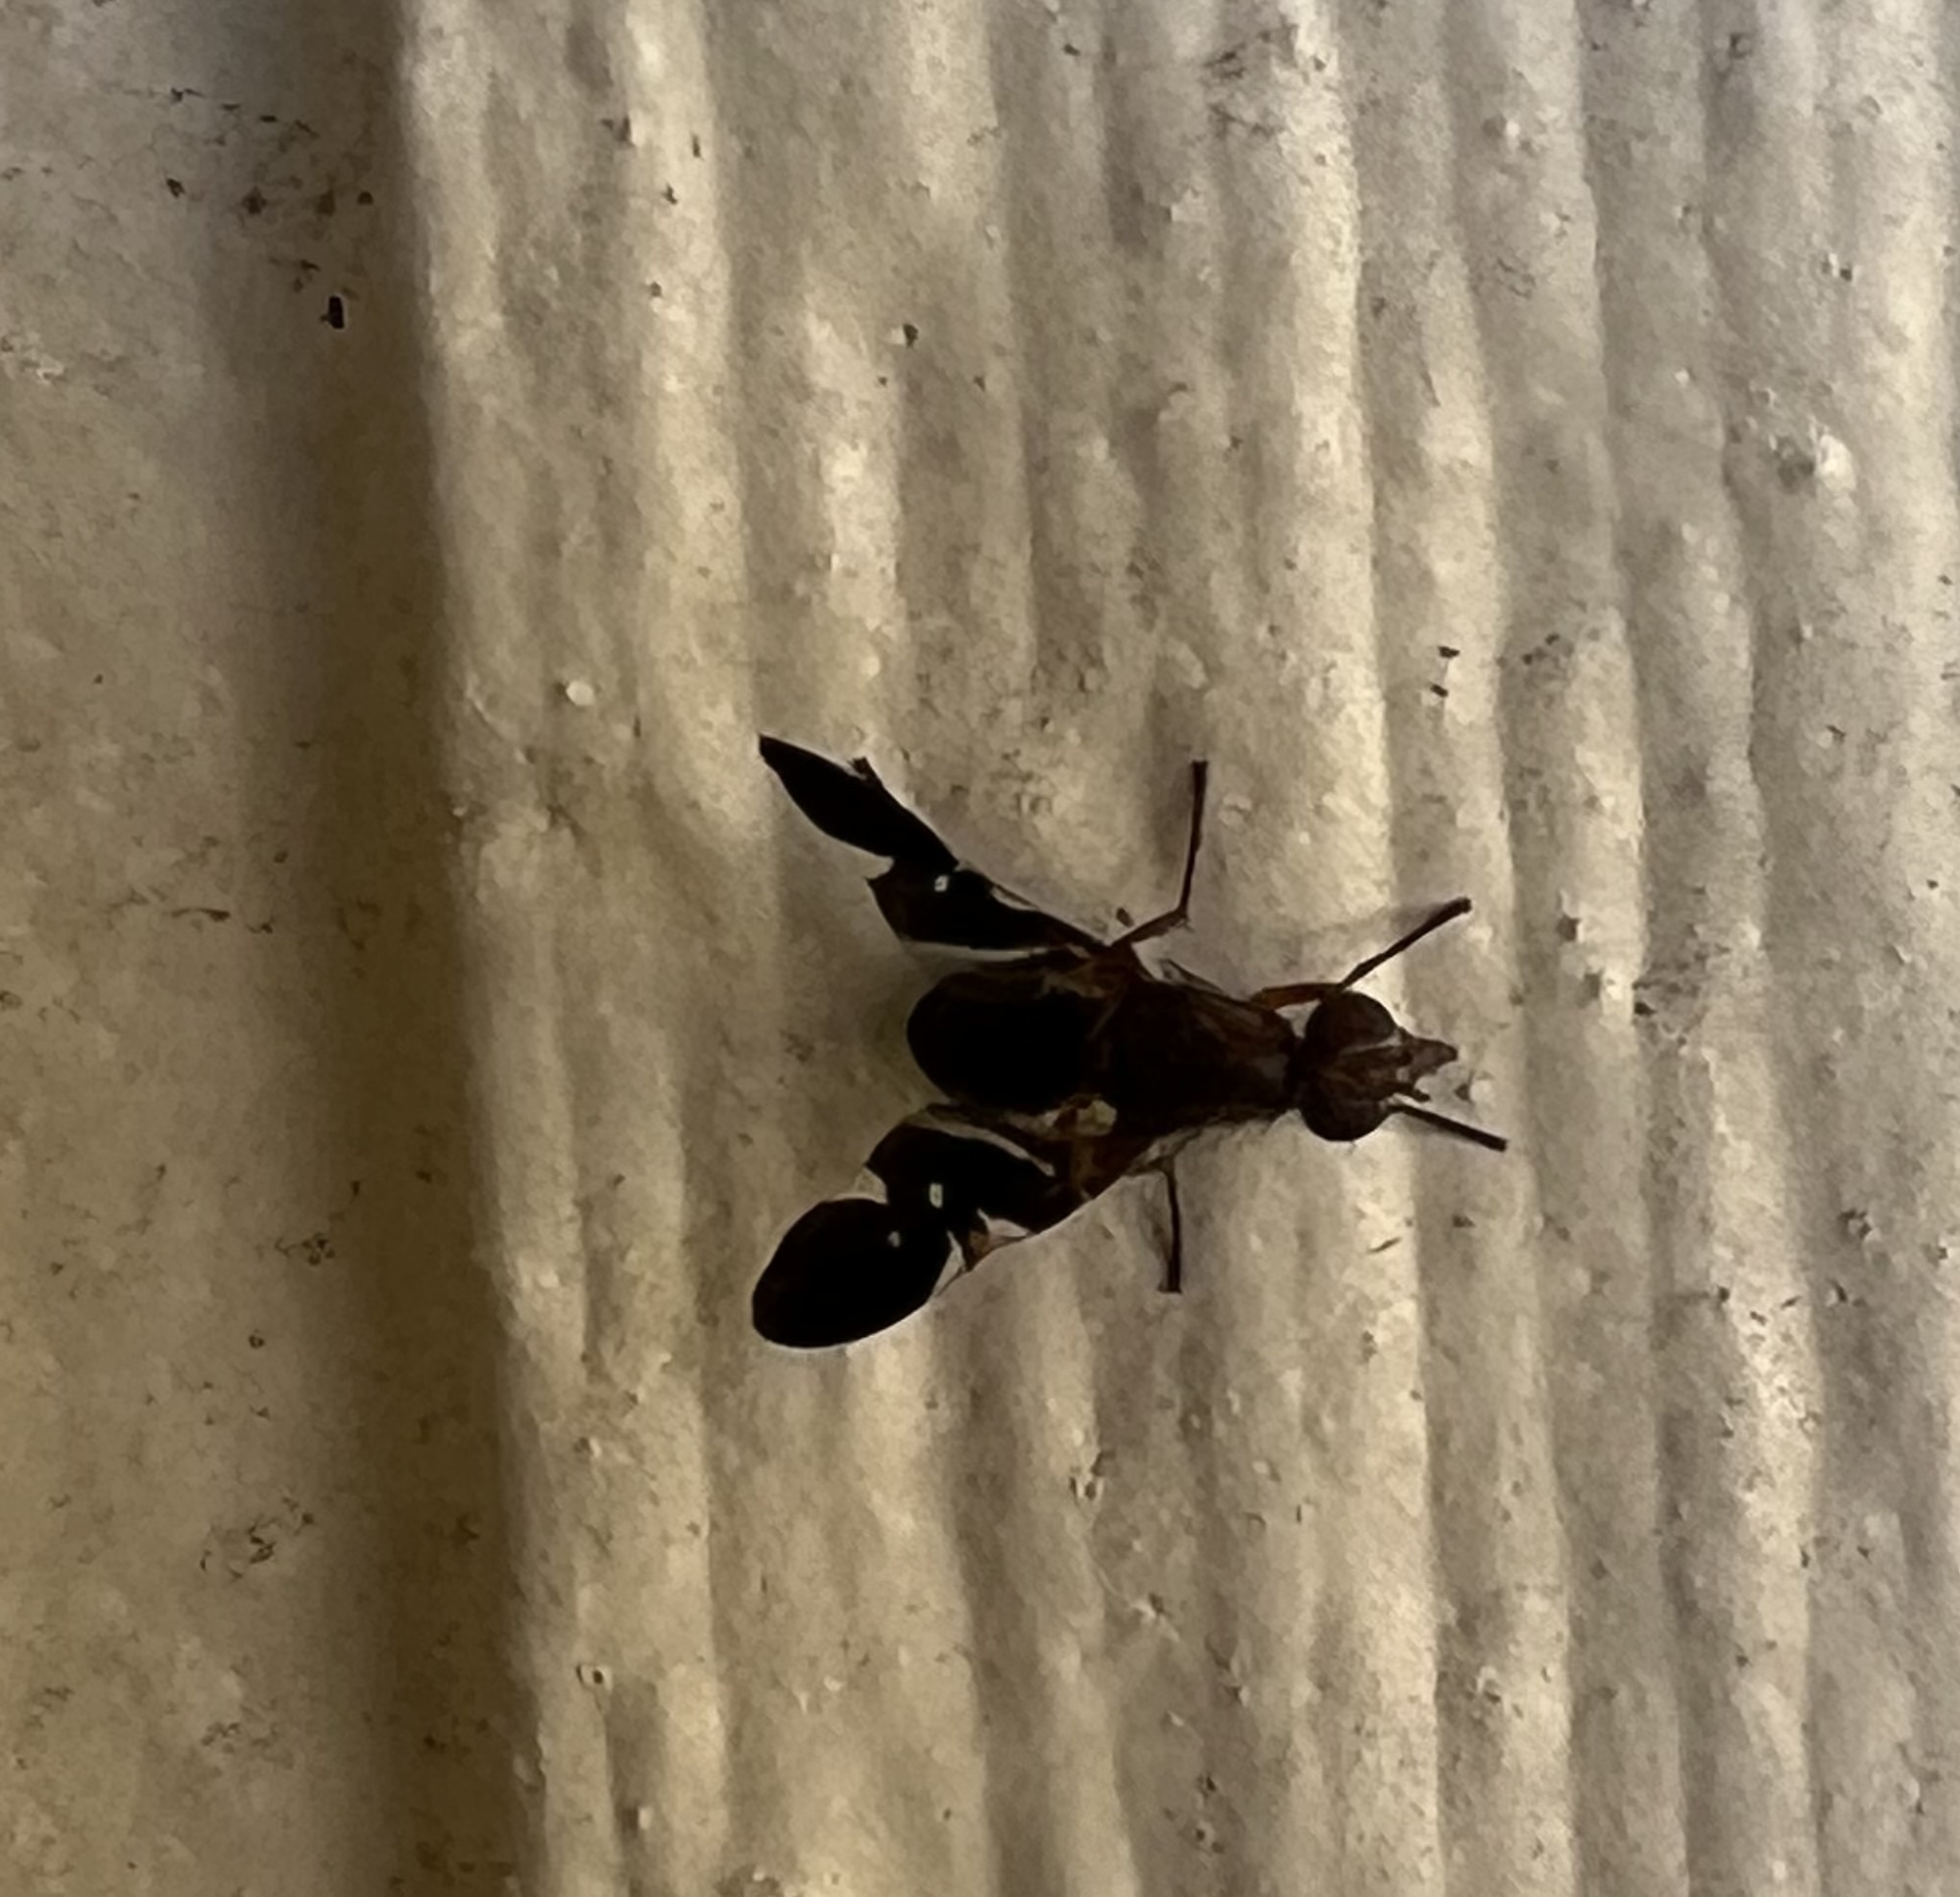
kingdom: Animalia
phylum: Arthropoda
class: Insecta
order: Diptera
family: Ulidiidae
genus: Delphinia
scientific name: Delphinia picta
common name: Common picture-winged fly
